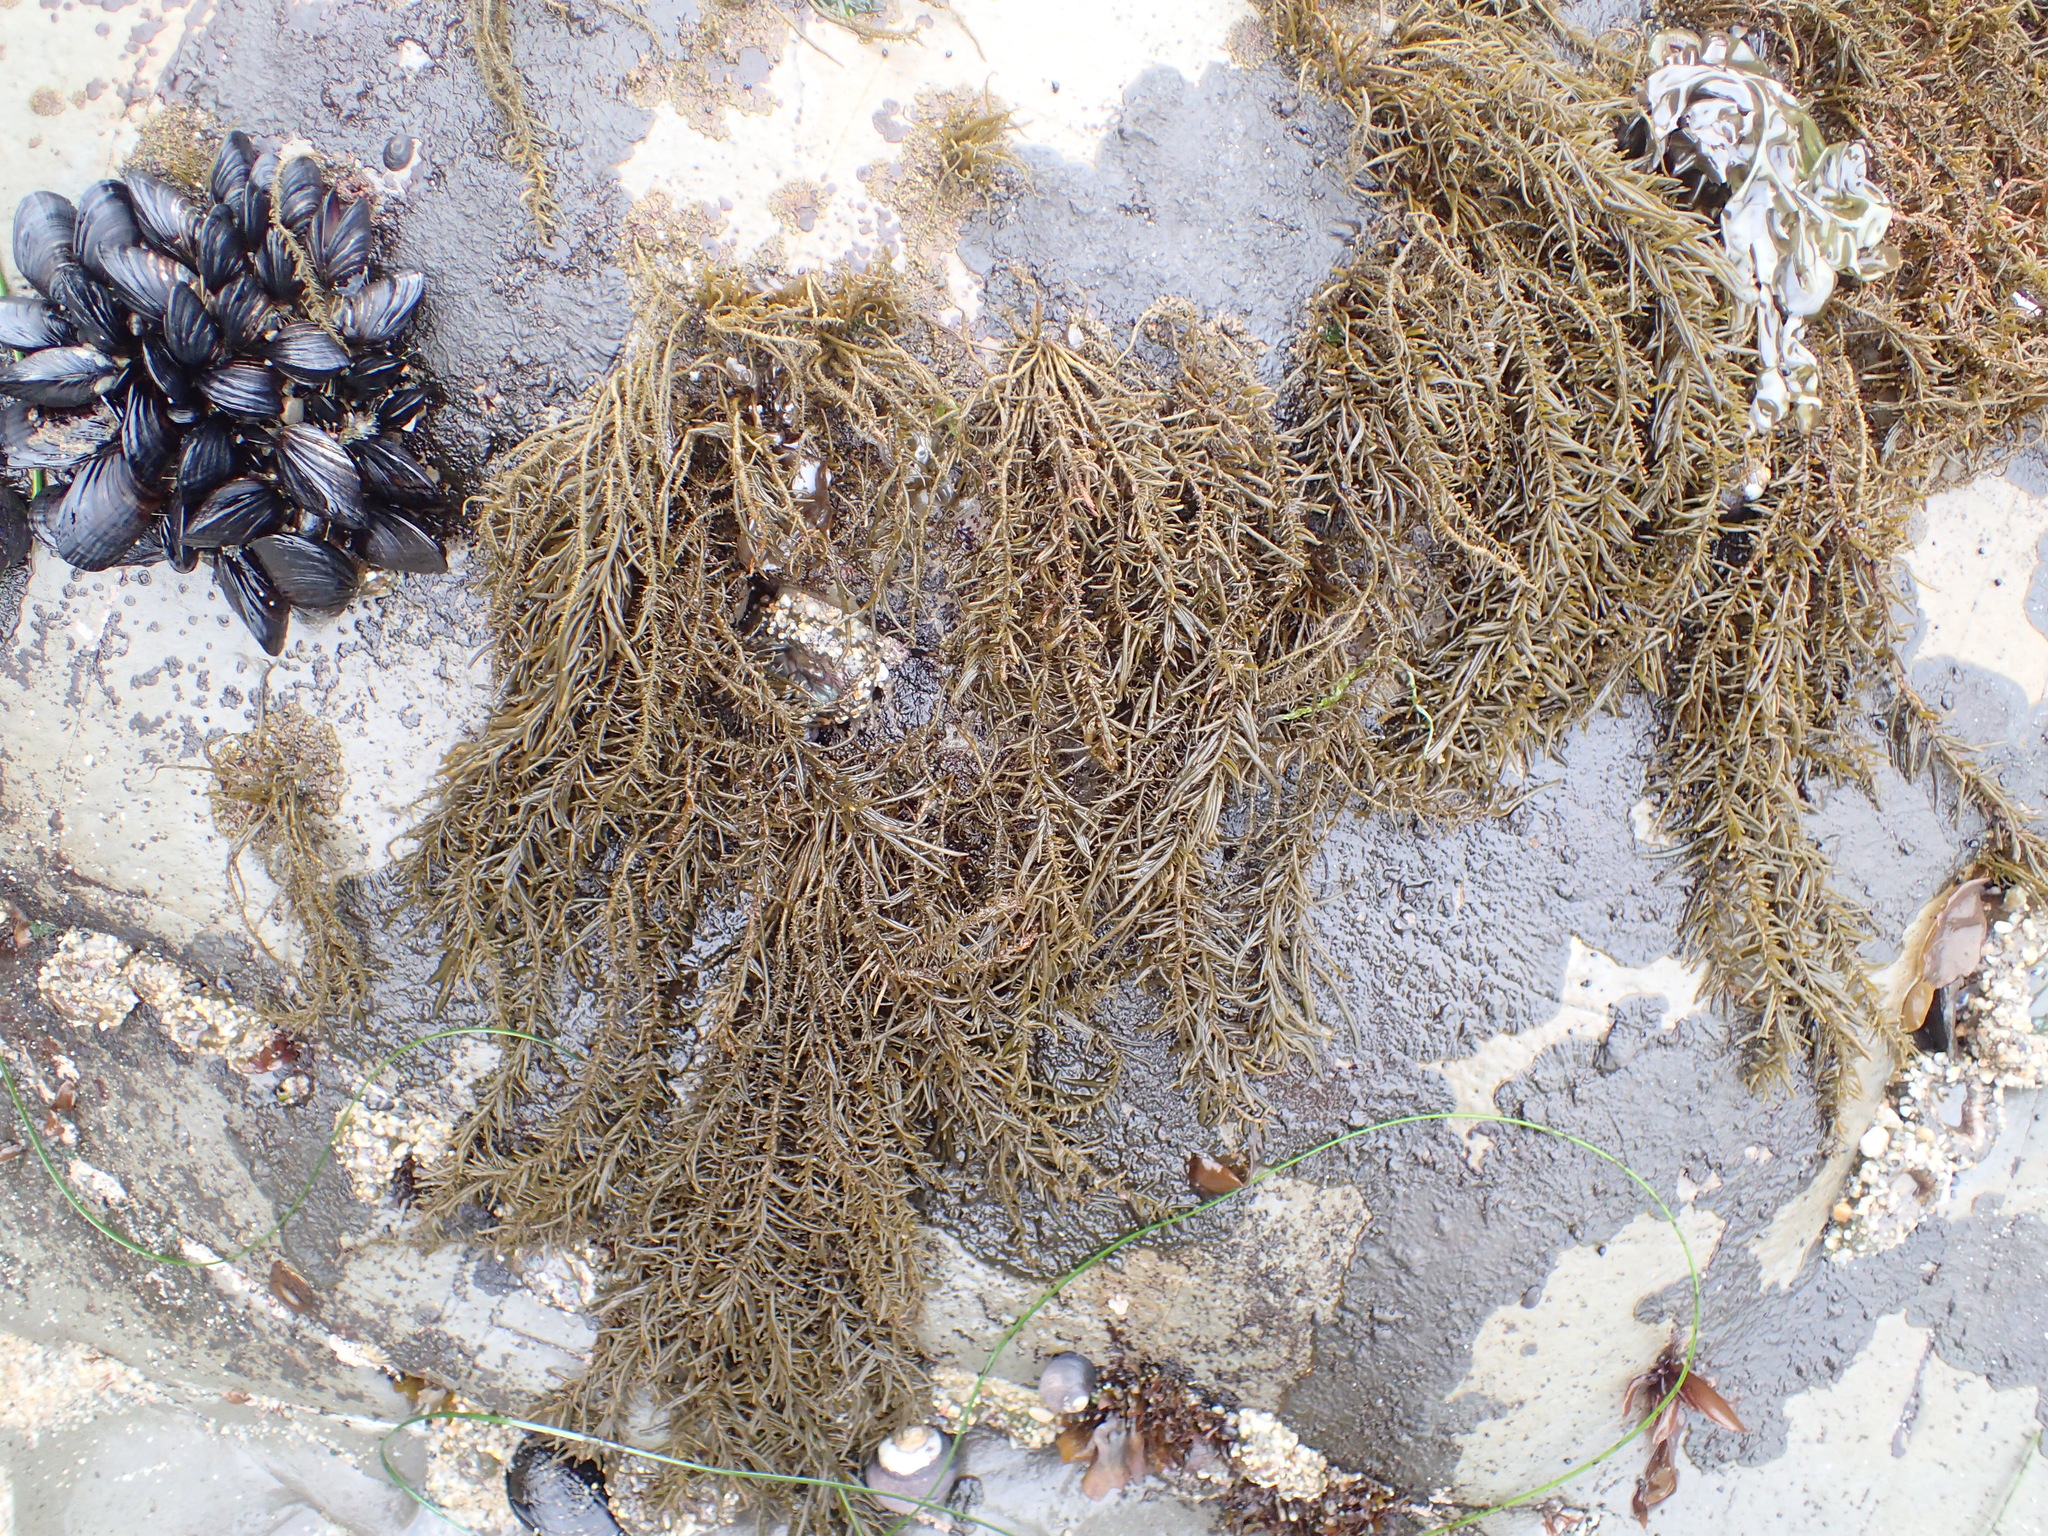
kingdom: Chromista
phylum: Ochrophyta
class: Phaeophyceae
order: Scytosiphonales
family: Scytosiphonaceae
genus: Analipus
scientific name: Analipus japonicus
